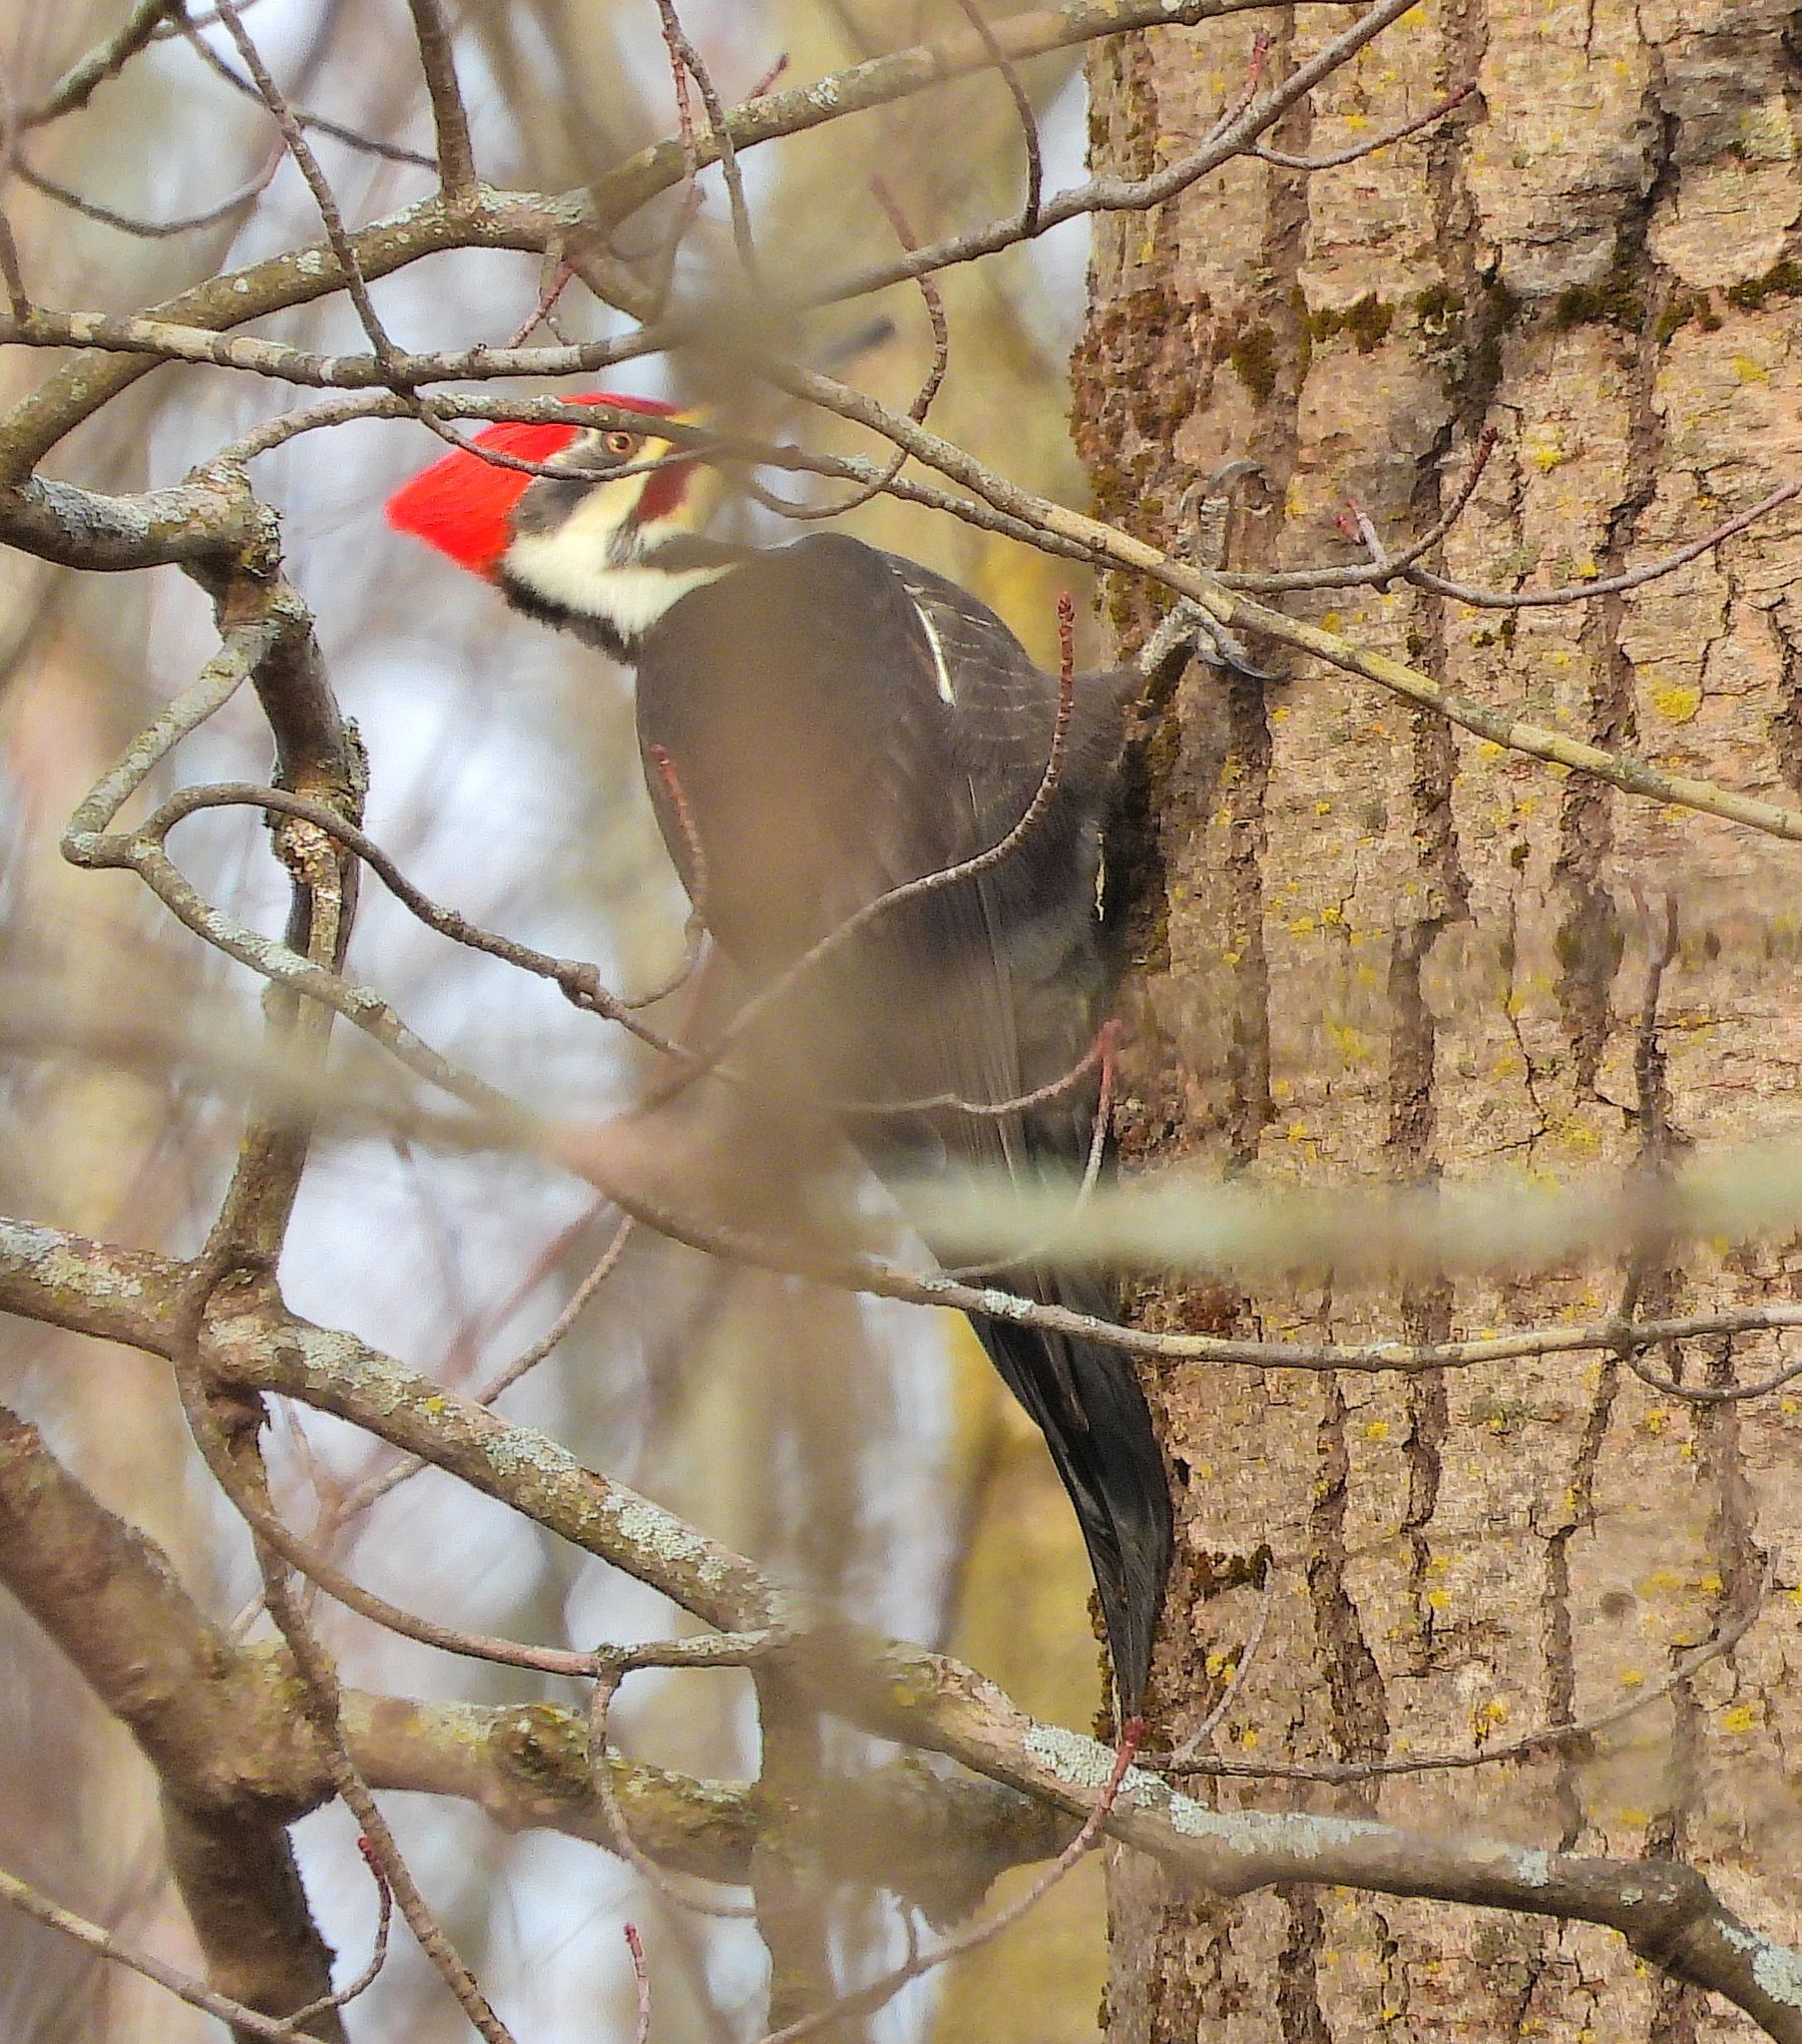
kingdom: Animalia
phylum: Chordata
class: Aves
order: Piciformes
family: Picidae
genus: Dryocopus
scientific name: Dryocopus pileatus
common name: Pileated woodpecker
